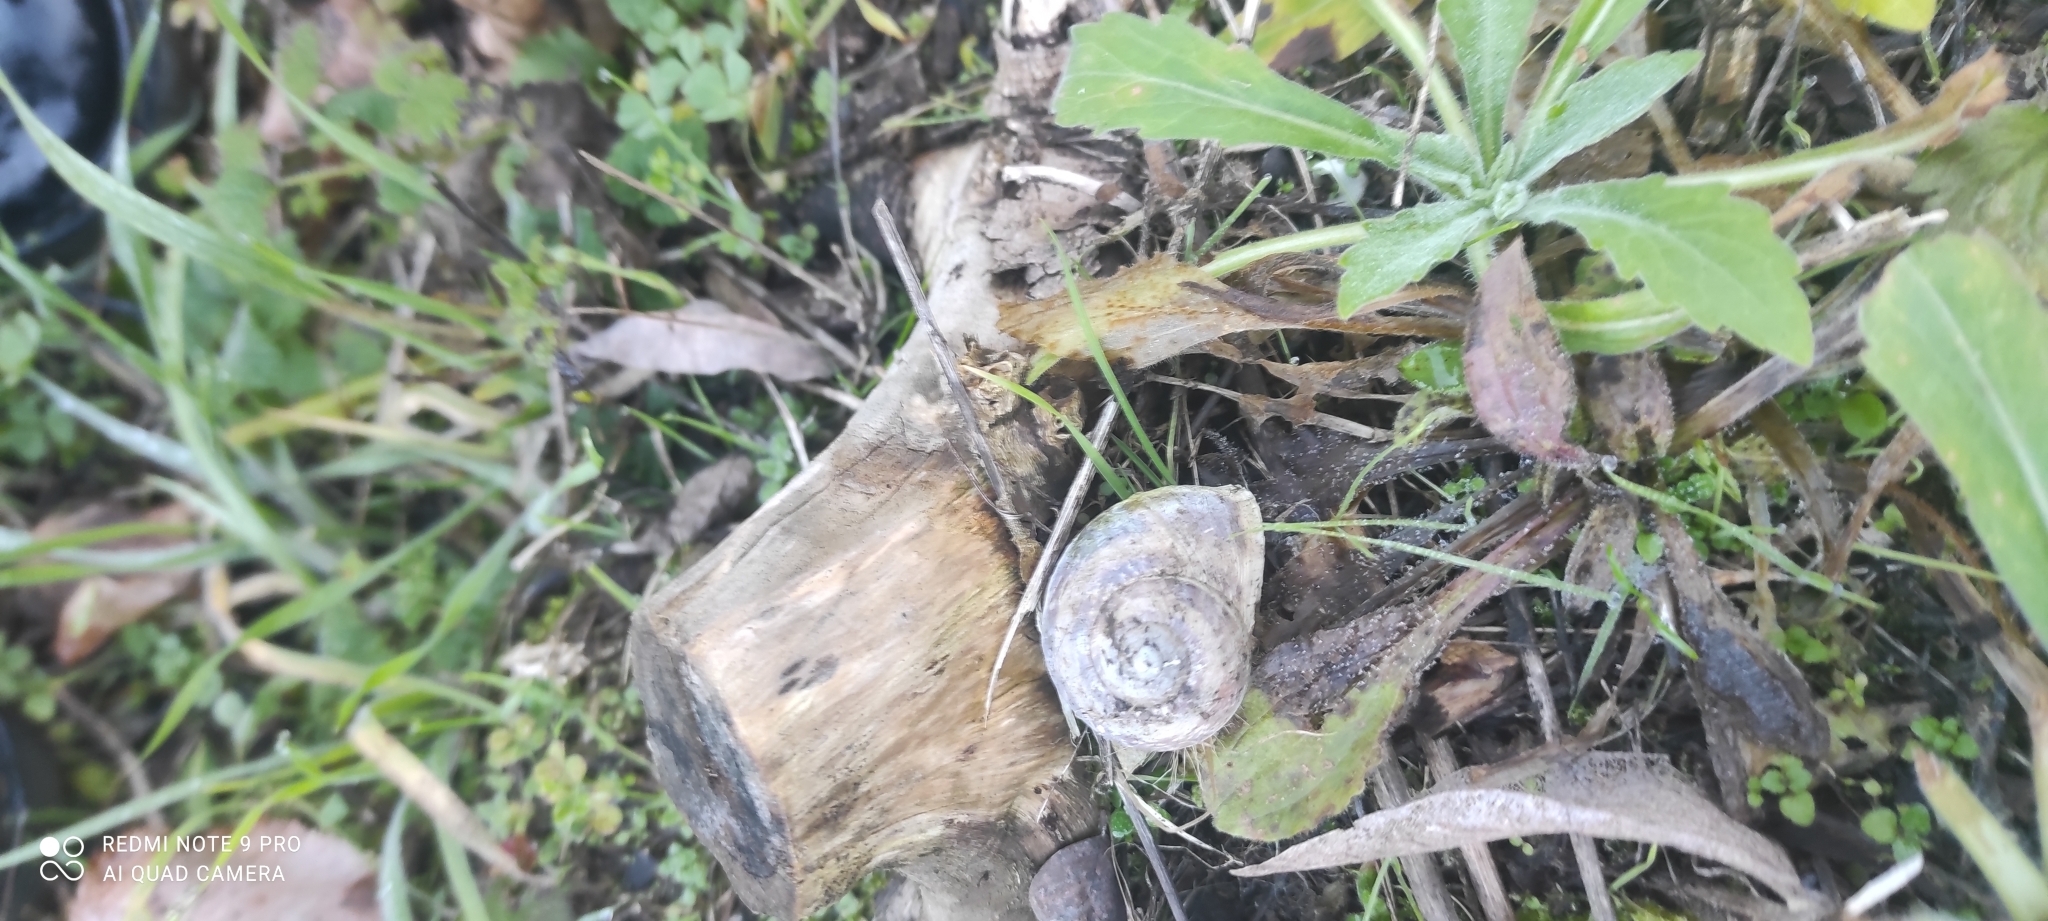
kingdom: Animalia
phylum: Mollusca
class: Gastropoda
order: Stylommatophora
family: Helicidae
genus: Cornu
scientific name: Cornu aspersum
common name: Brown garden snail
